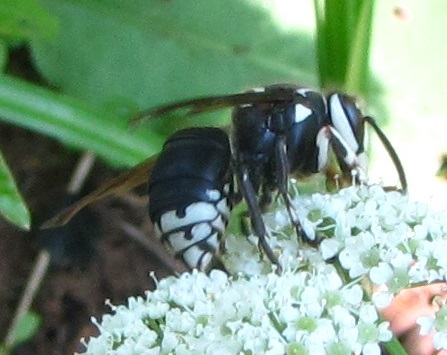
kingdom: Animalia
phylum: Arthropoda
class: Insecta
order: Hymenoptera
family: Vespidae
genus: Dolichovespula
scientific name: Dolichovespula maculata
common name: Bald-faced hornet
